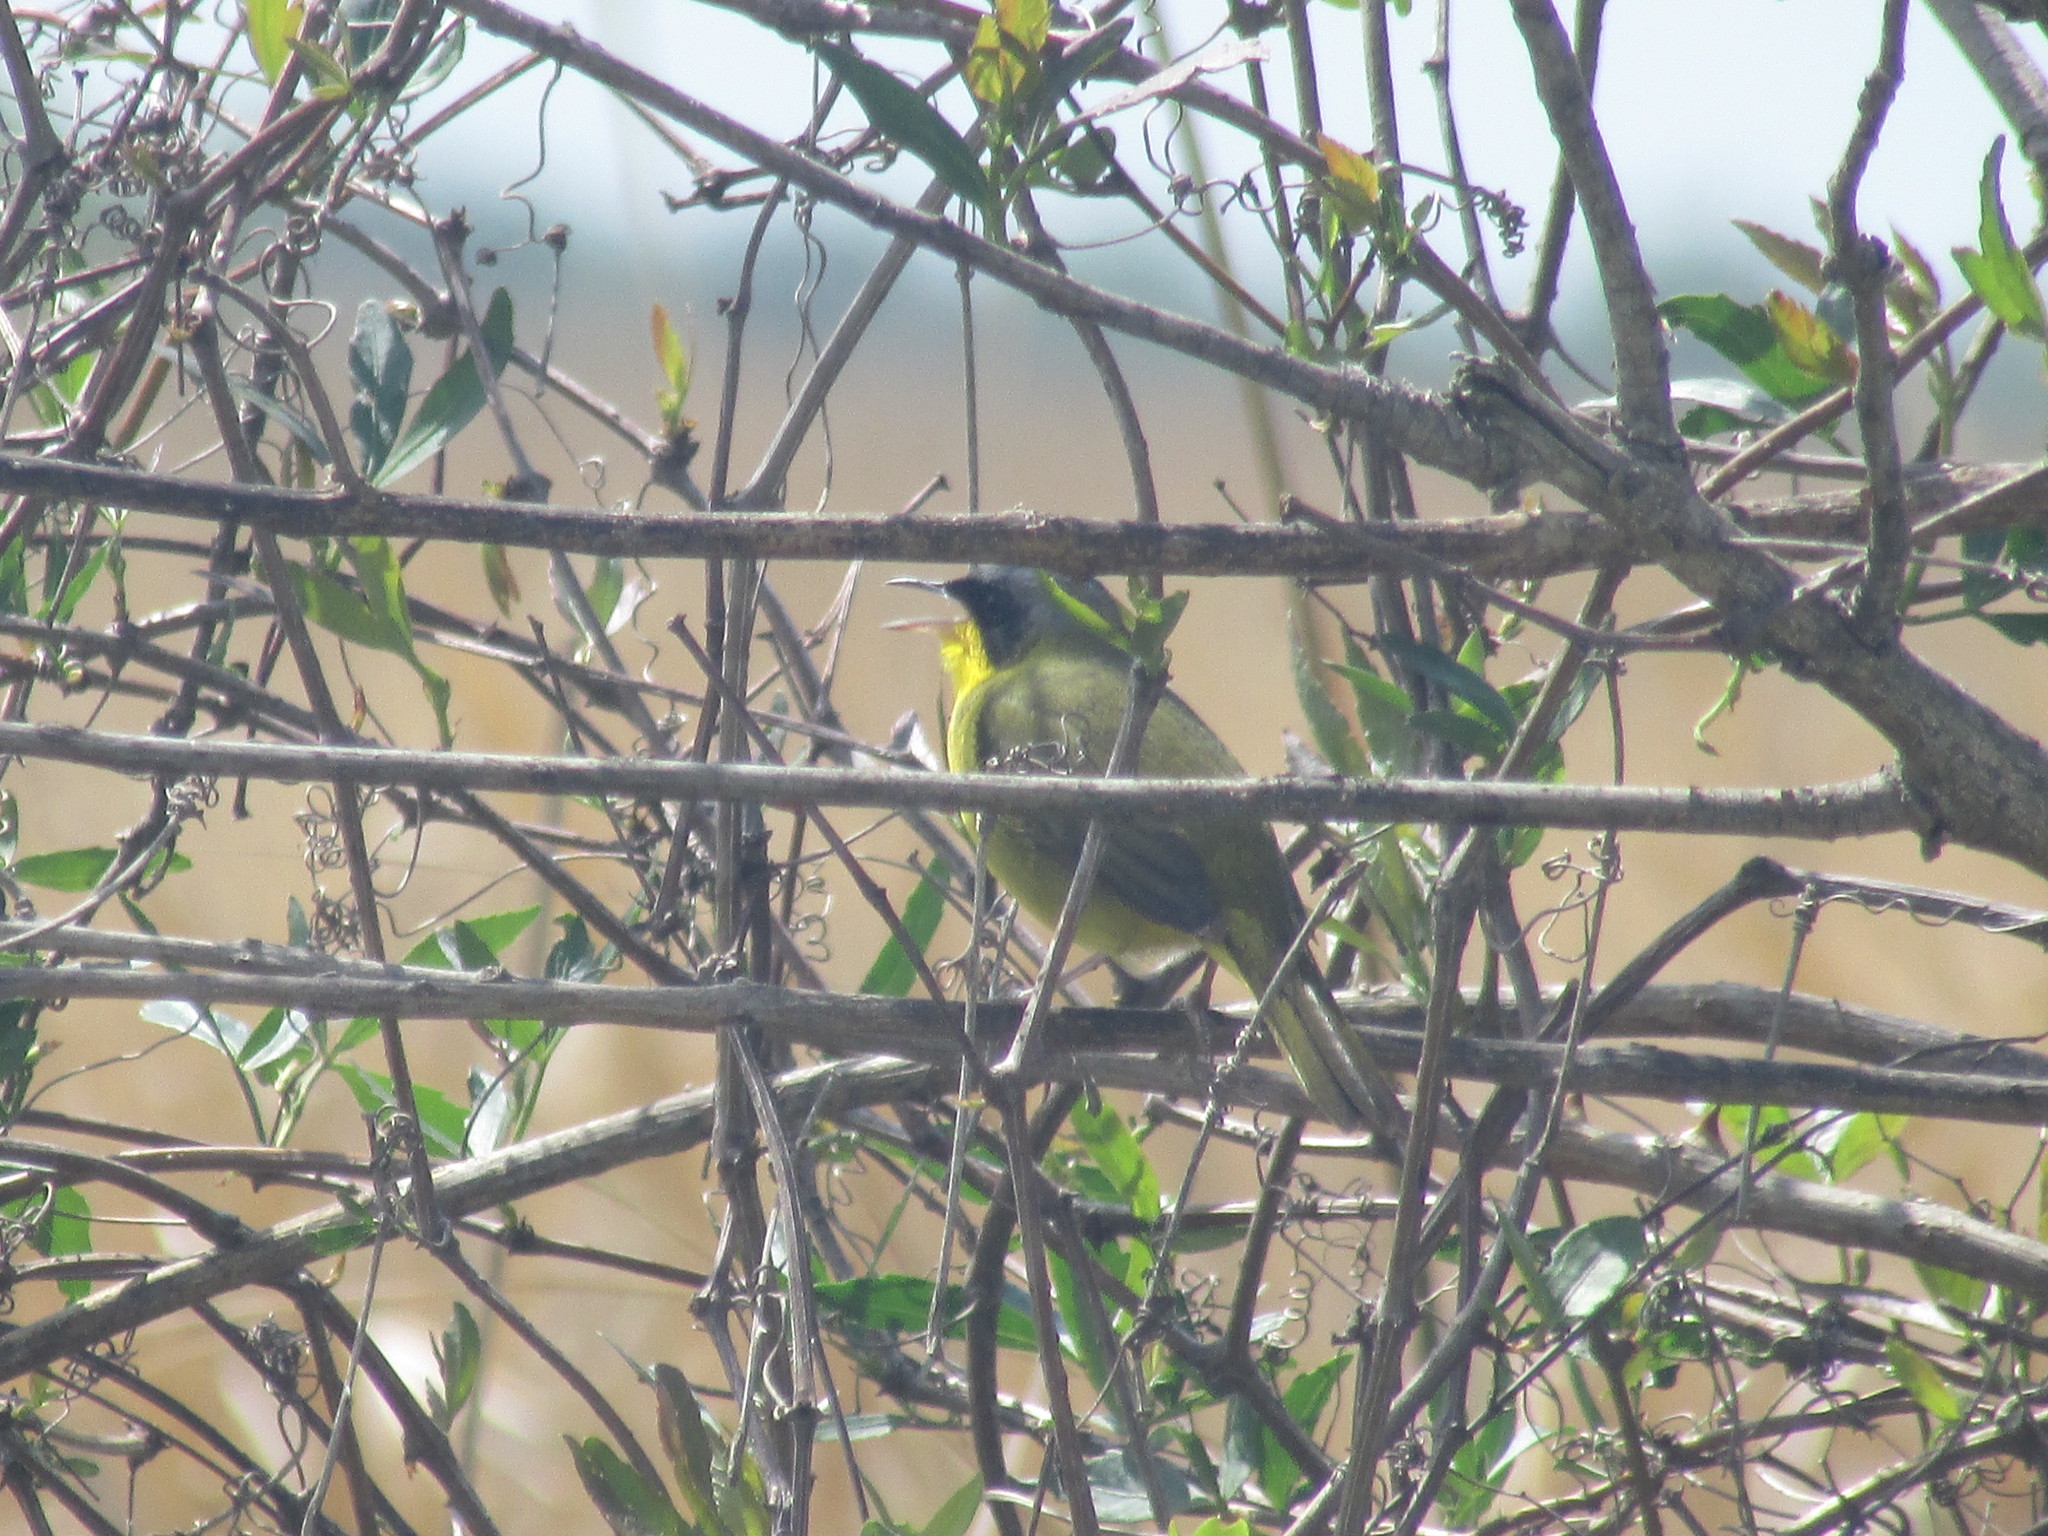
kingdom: Animalia
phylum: Chordata
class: Aves
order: Passeriformes
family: Parulidae
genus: Geothlypis
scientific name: Geothlypis velata
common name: Southern yellowthroat
